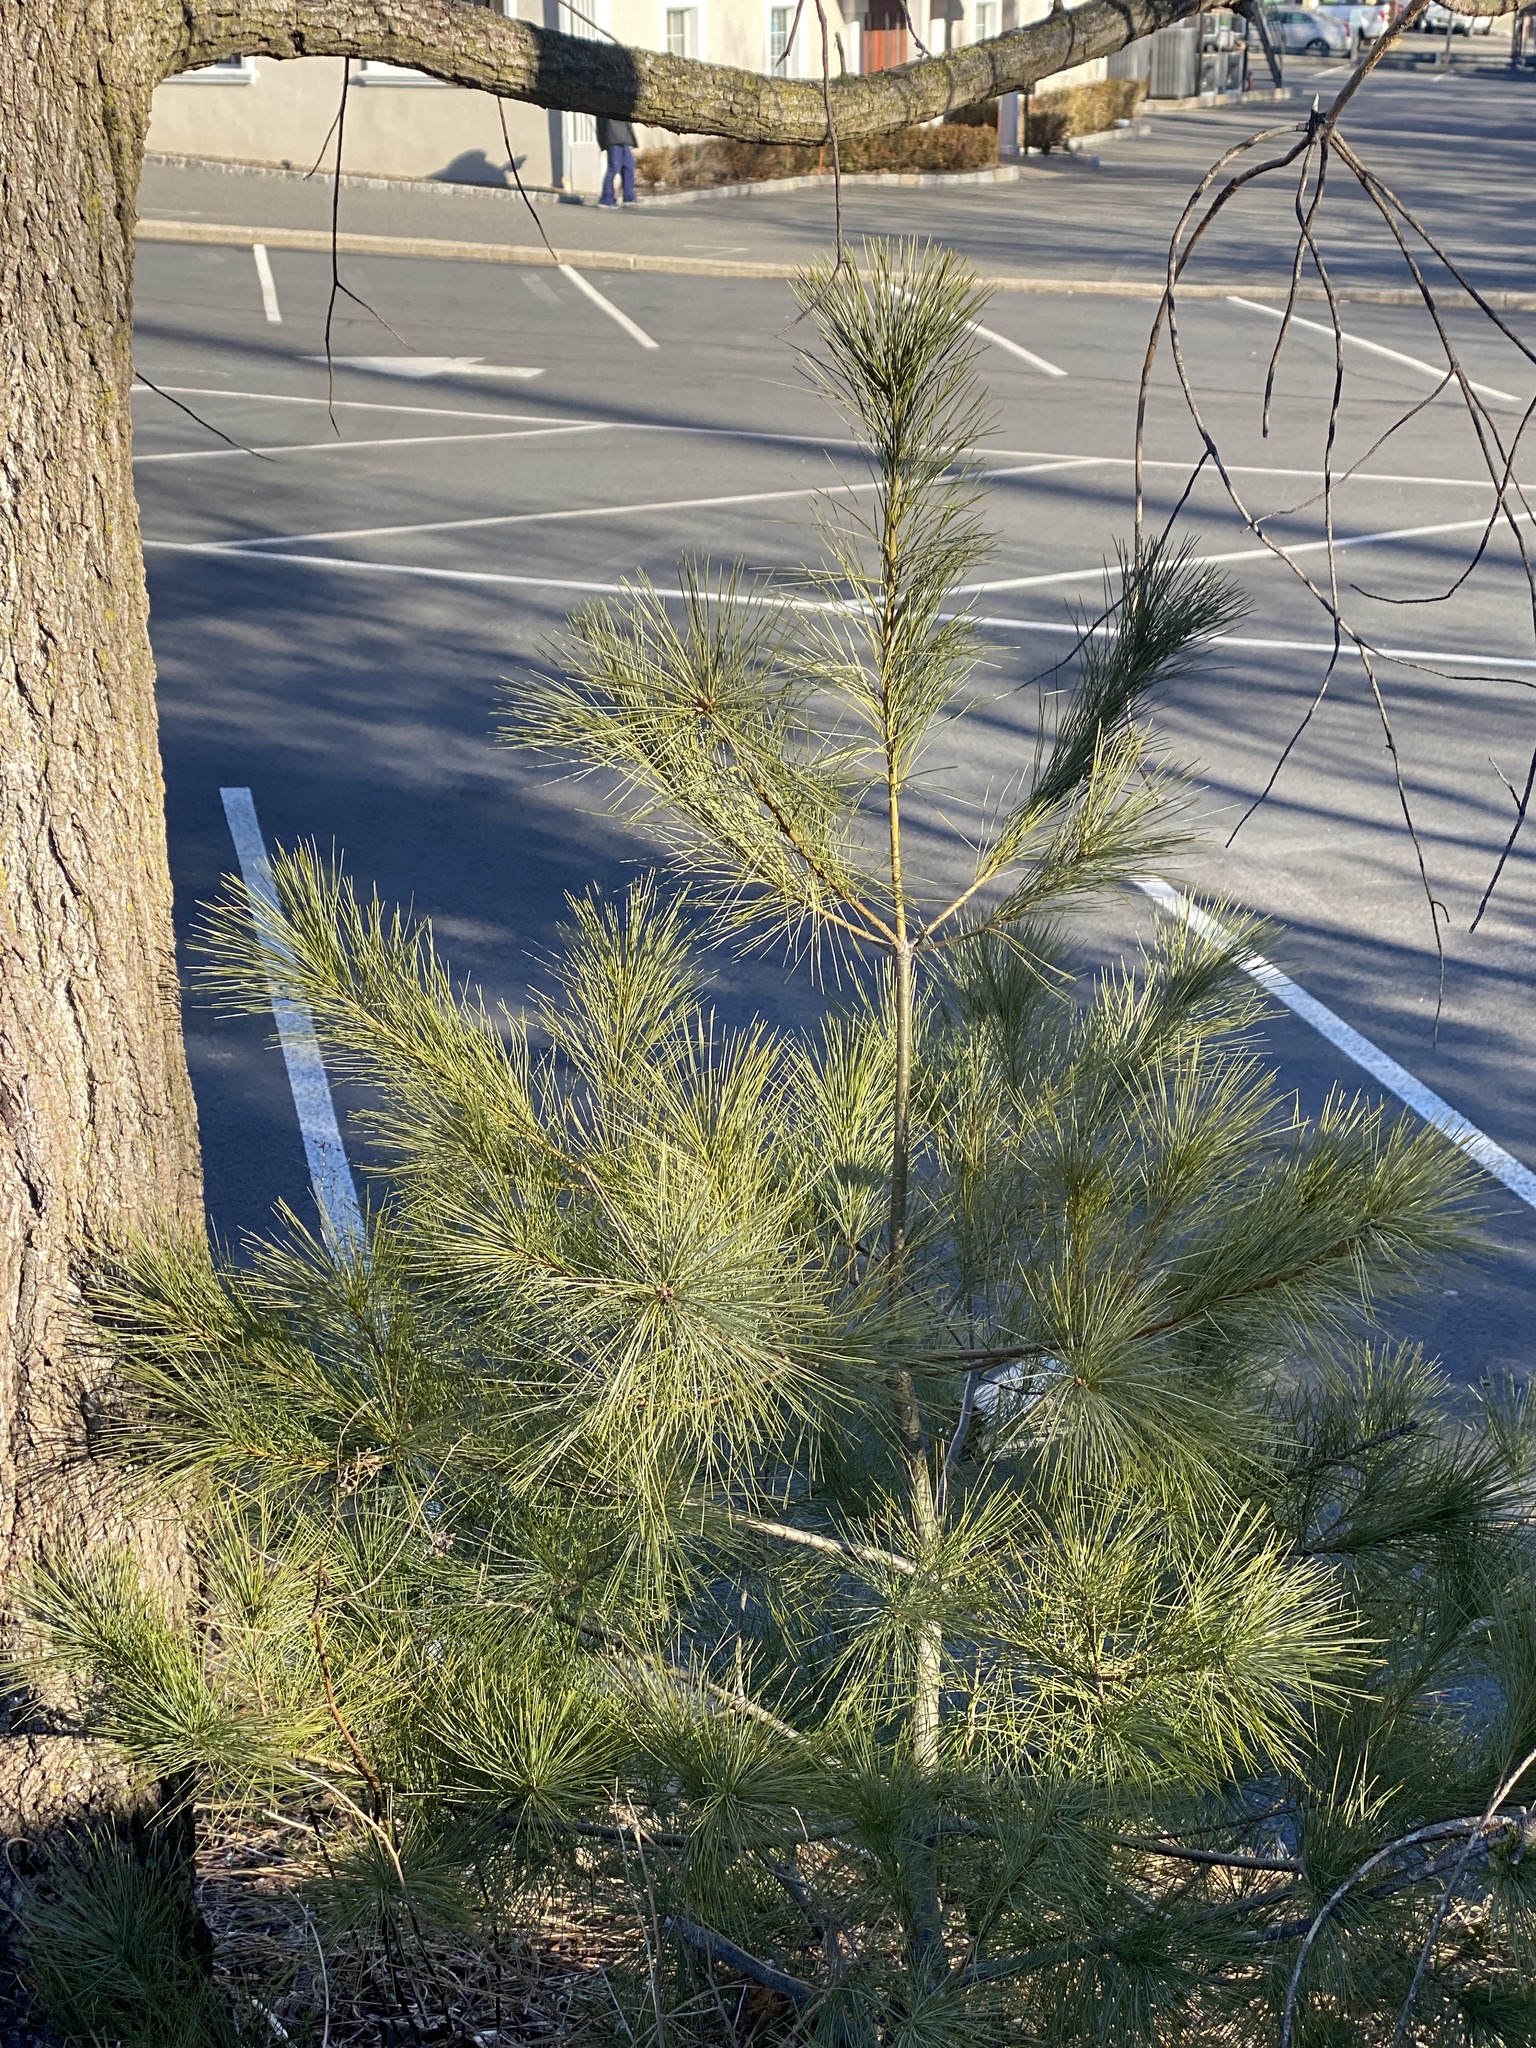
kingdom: Plantae
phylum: Tracheophyta
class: Pinopsida
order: Pinales
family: Pinaceae
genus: Pinus
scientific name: Pinus strobus
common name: Weymouth pine
